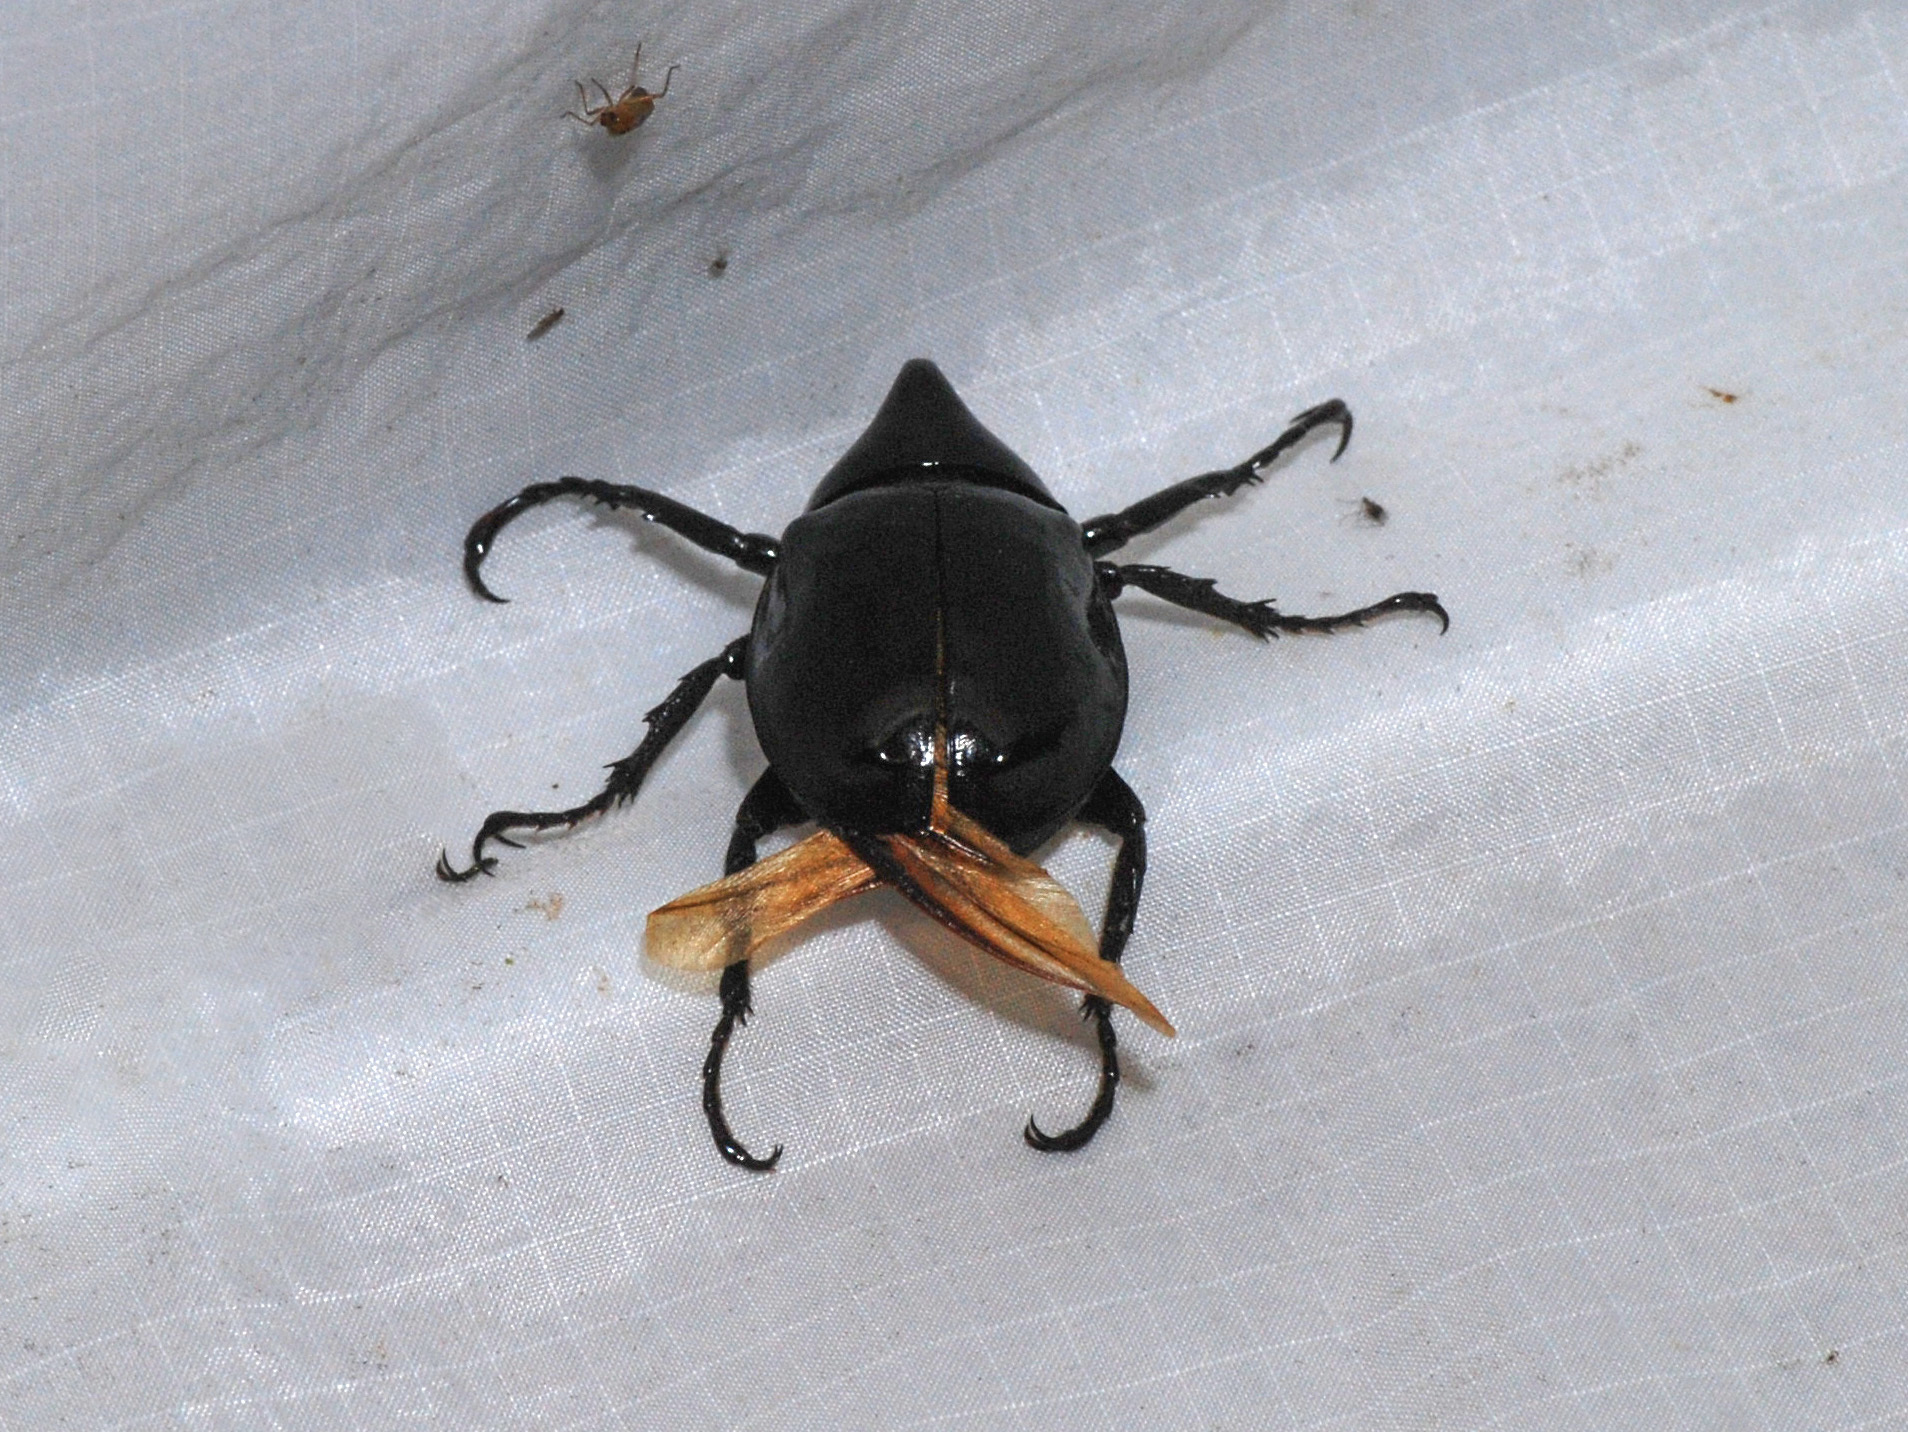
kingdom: Animalia
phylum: Arthropoda
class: Insecta
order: Coleoptera
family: Scarabaeidae
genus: Xylotrupes
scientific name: Xylotrupes sumatrensis
